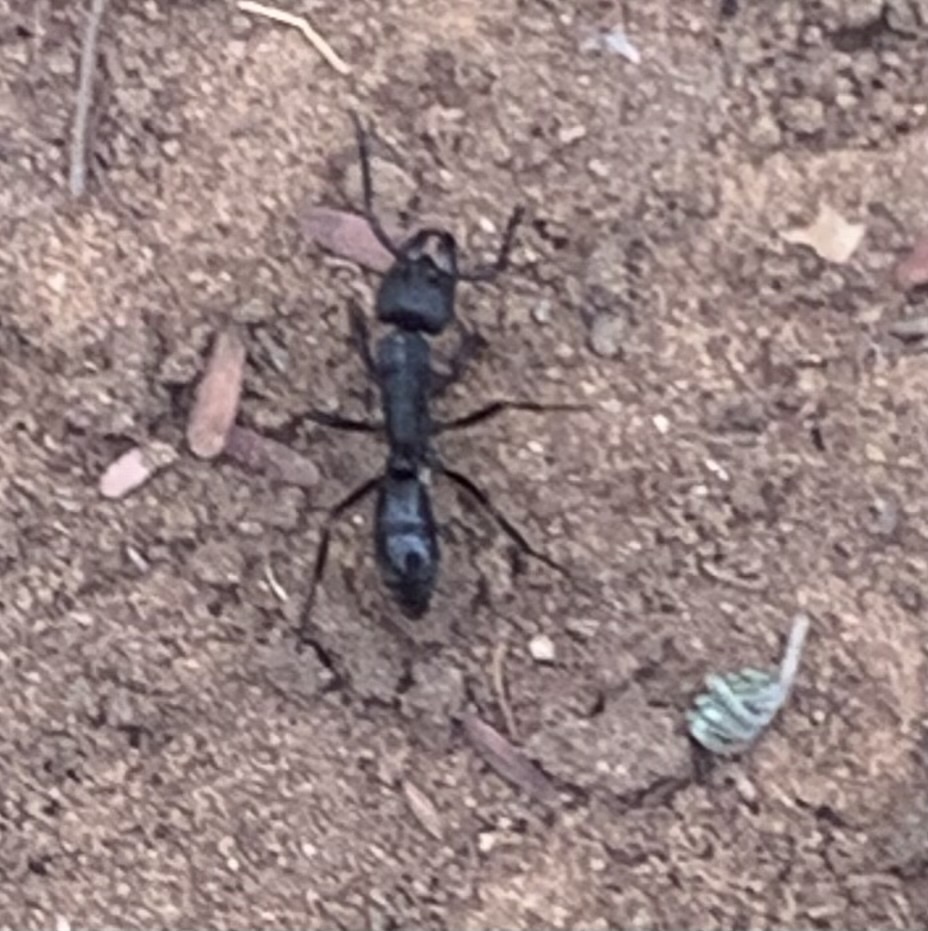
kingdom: Animalia
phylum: Arthropoda
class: Insecta
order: Hymenoptera
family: Formicidae
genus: Paltothyreus
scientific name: Paltothyreus tarsatus
